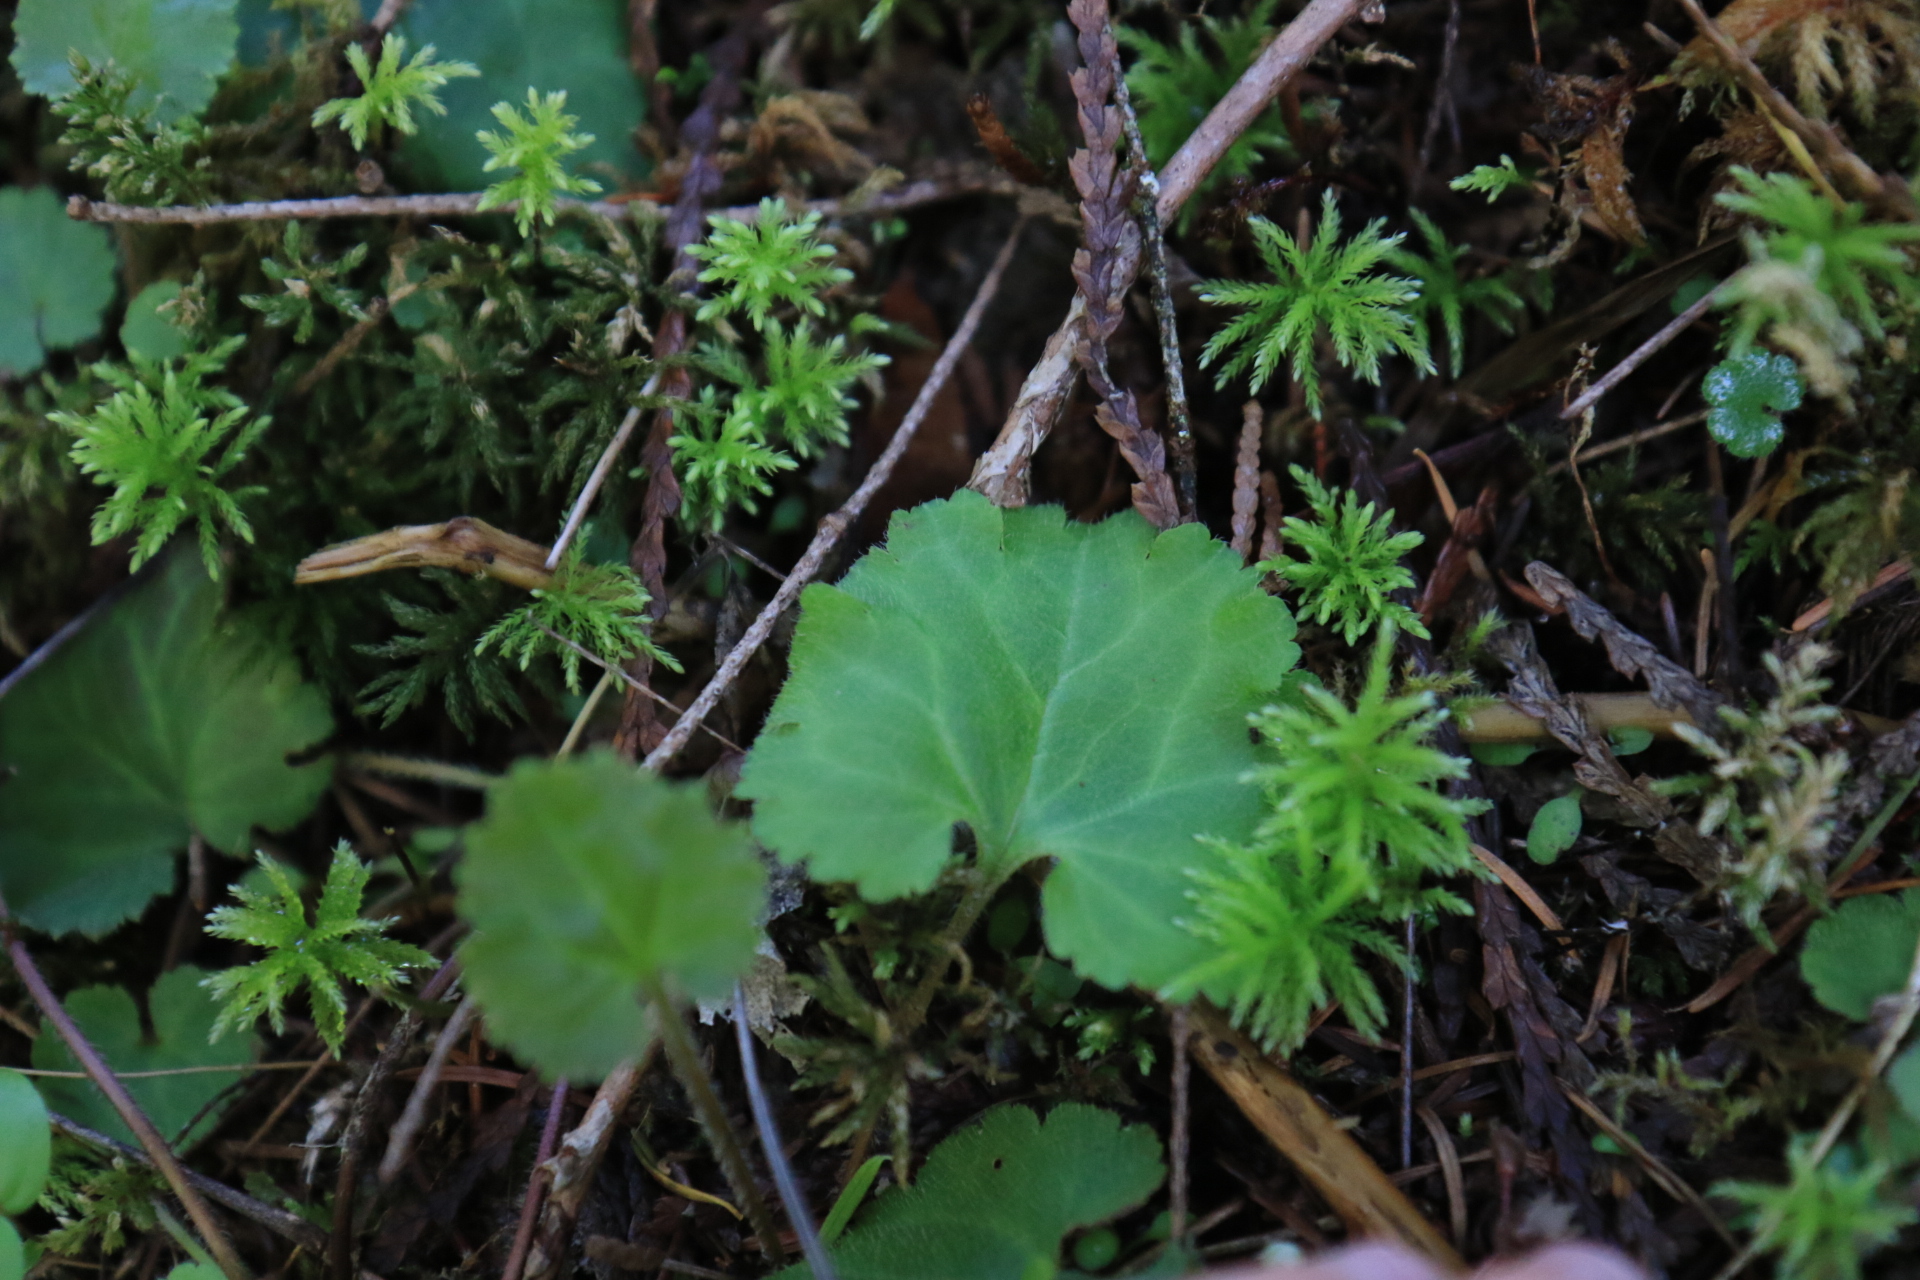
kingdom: Plantae
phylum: Tracheophyta
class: Magnoliopsida
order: Lamiales
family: Plantaginaceae
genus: Synthyris
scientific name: Synthyris reniformis
